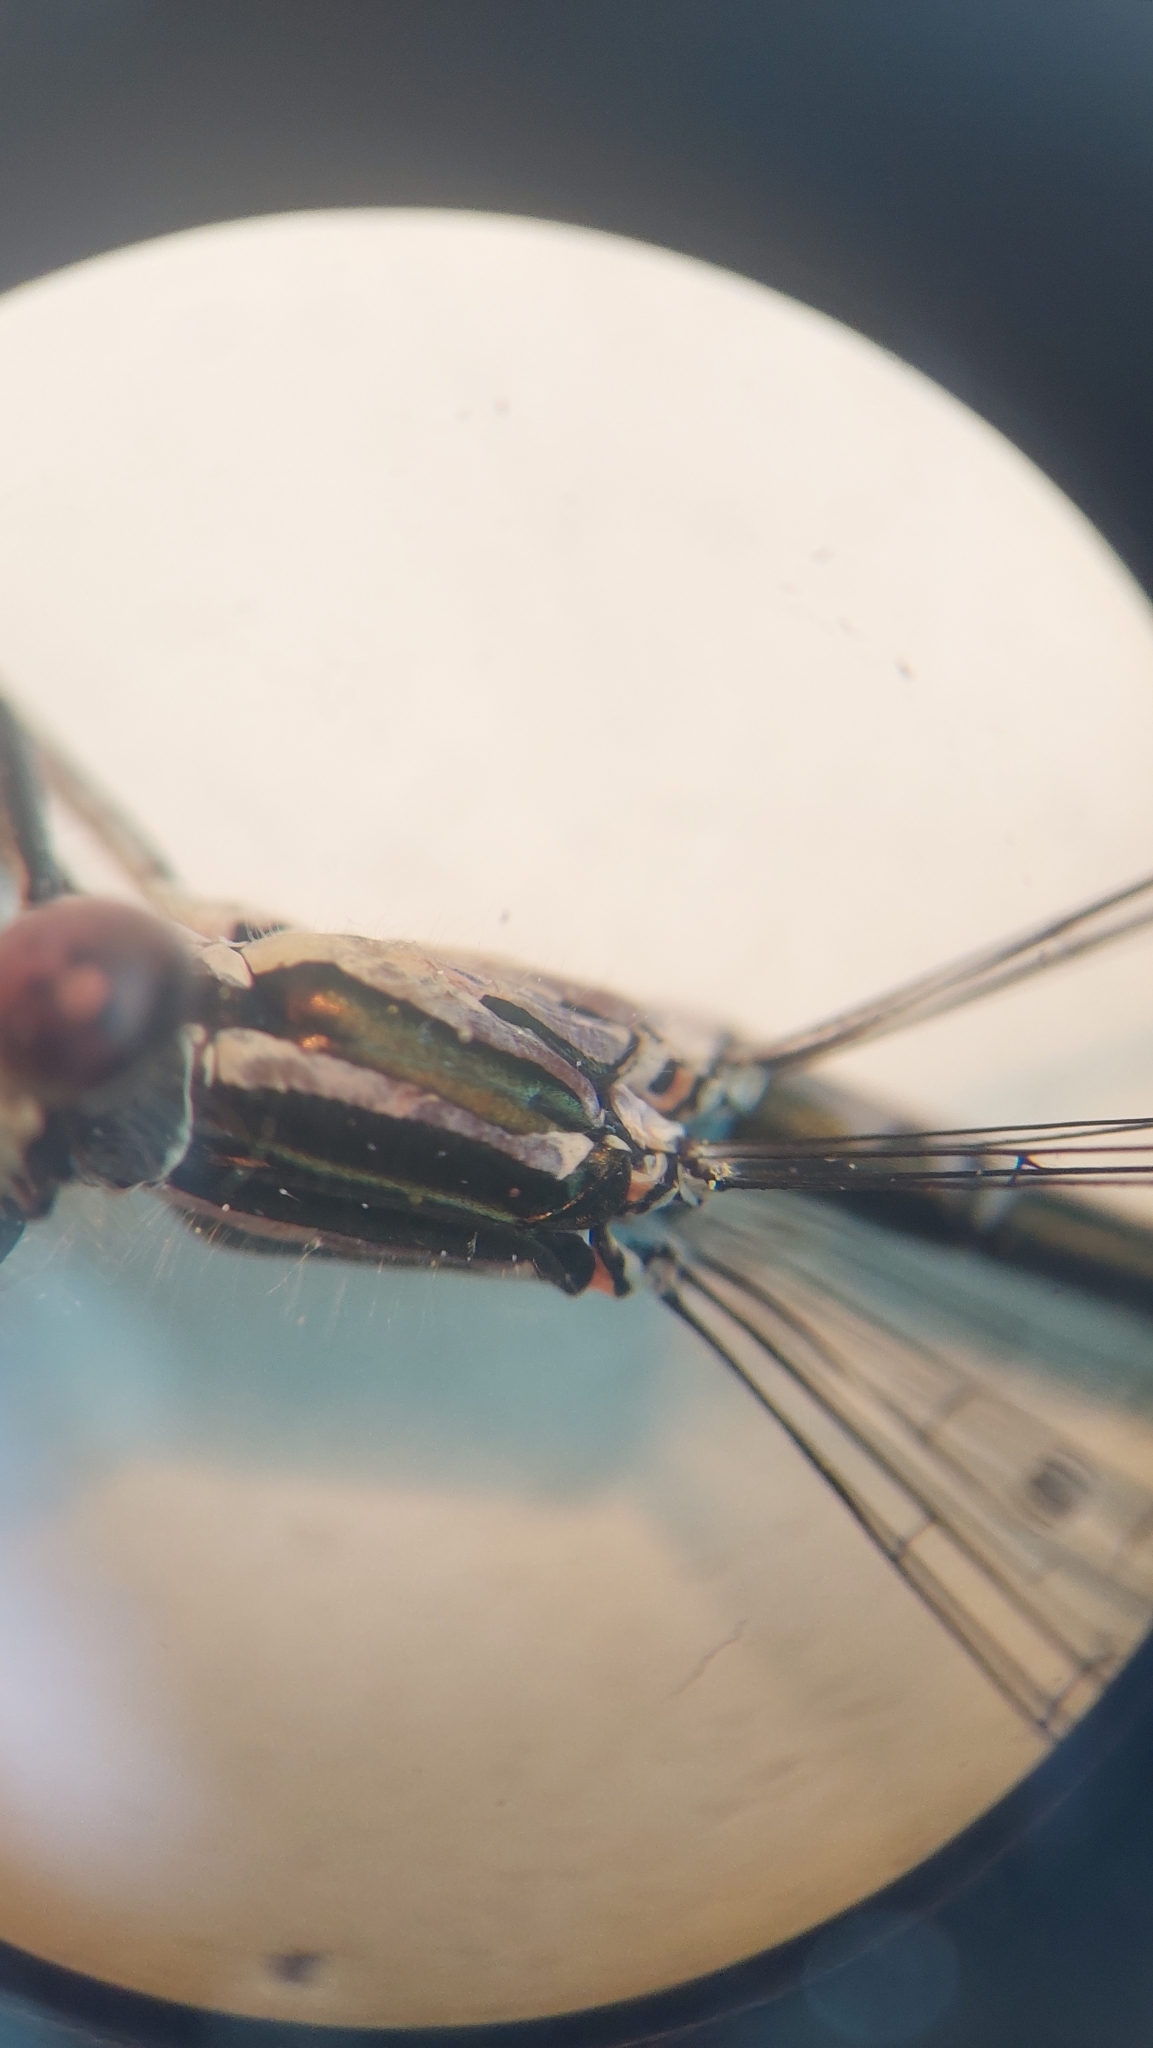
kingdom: Animalia
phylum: Arthropoda
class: Insecta
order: Odonata
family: Coenagrionidae
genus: Coenagrion
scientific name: Coenagrion puella
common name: Azure damselfly
